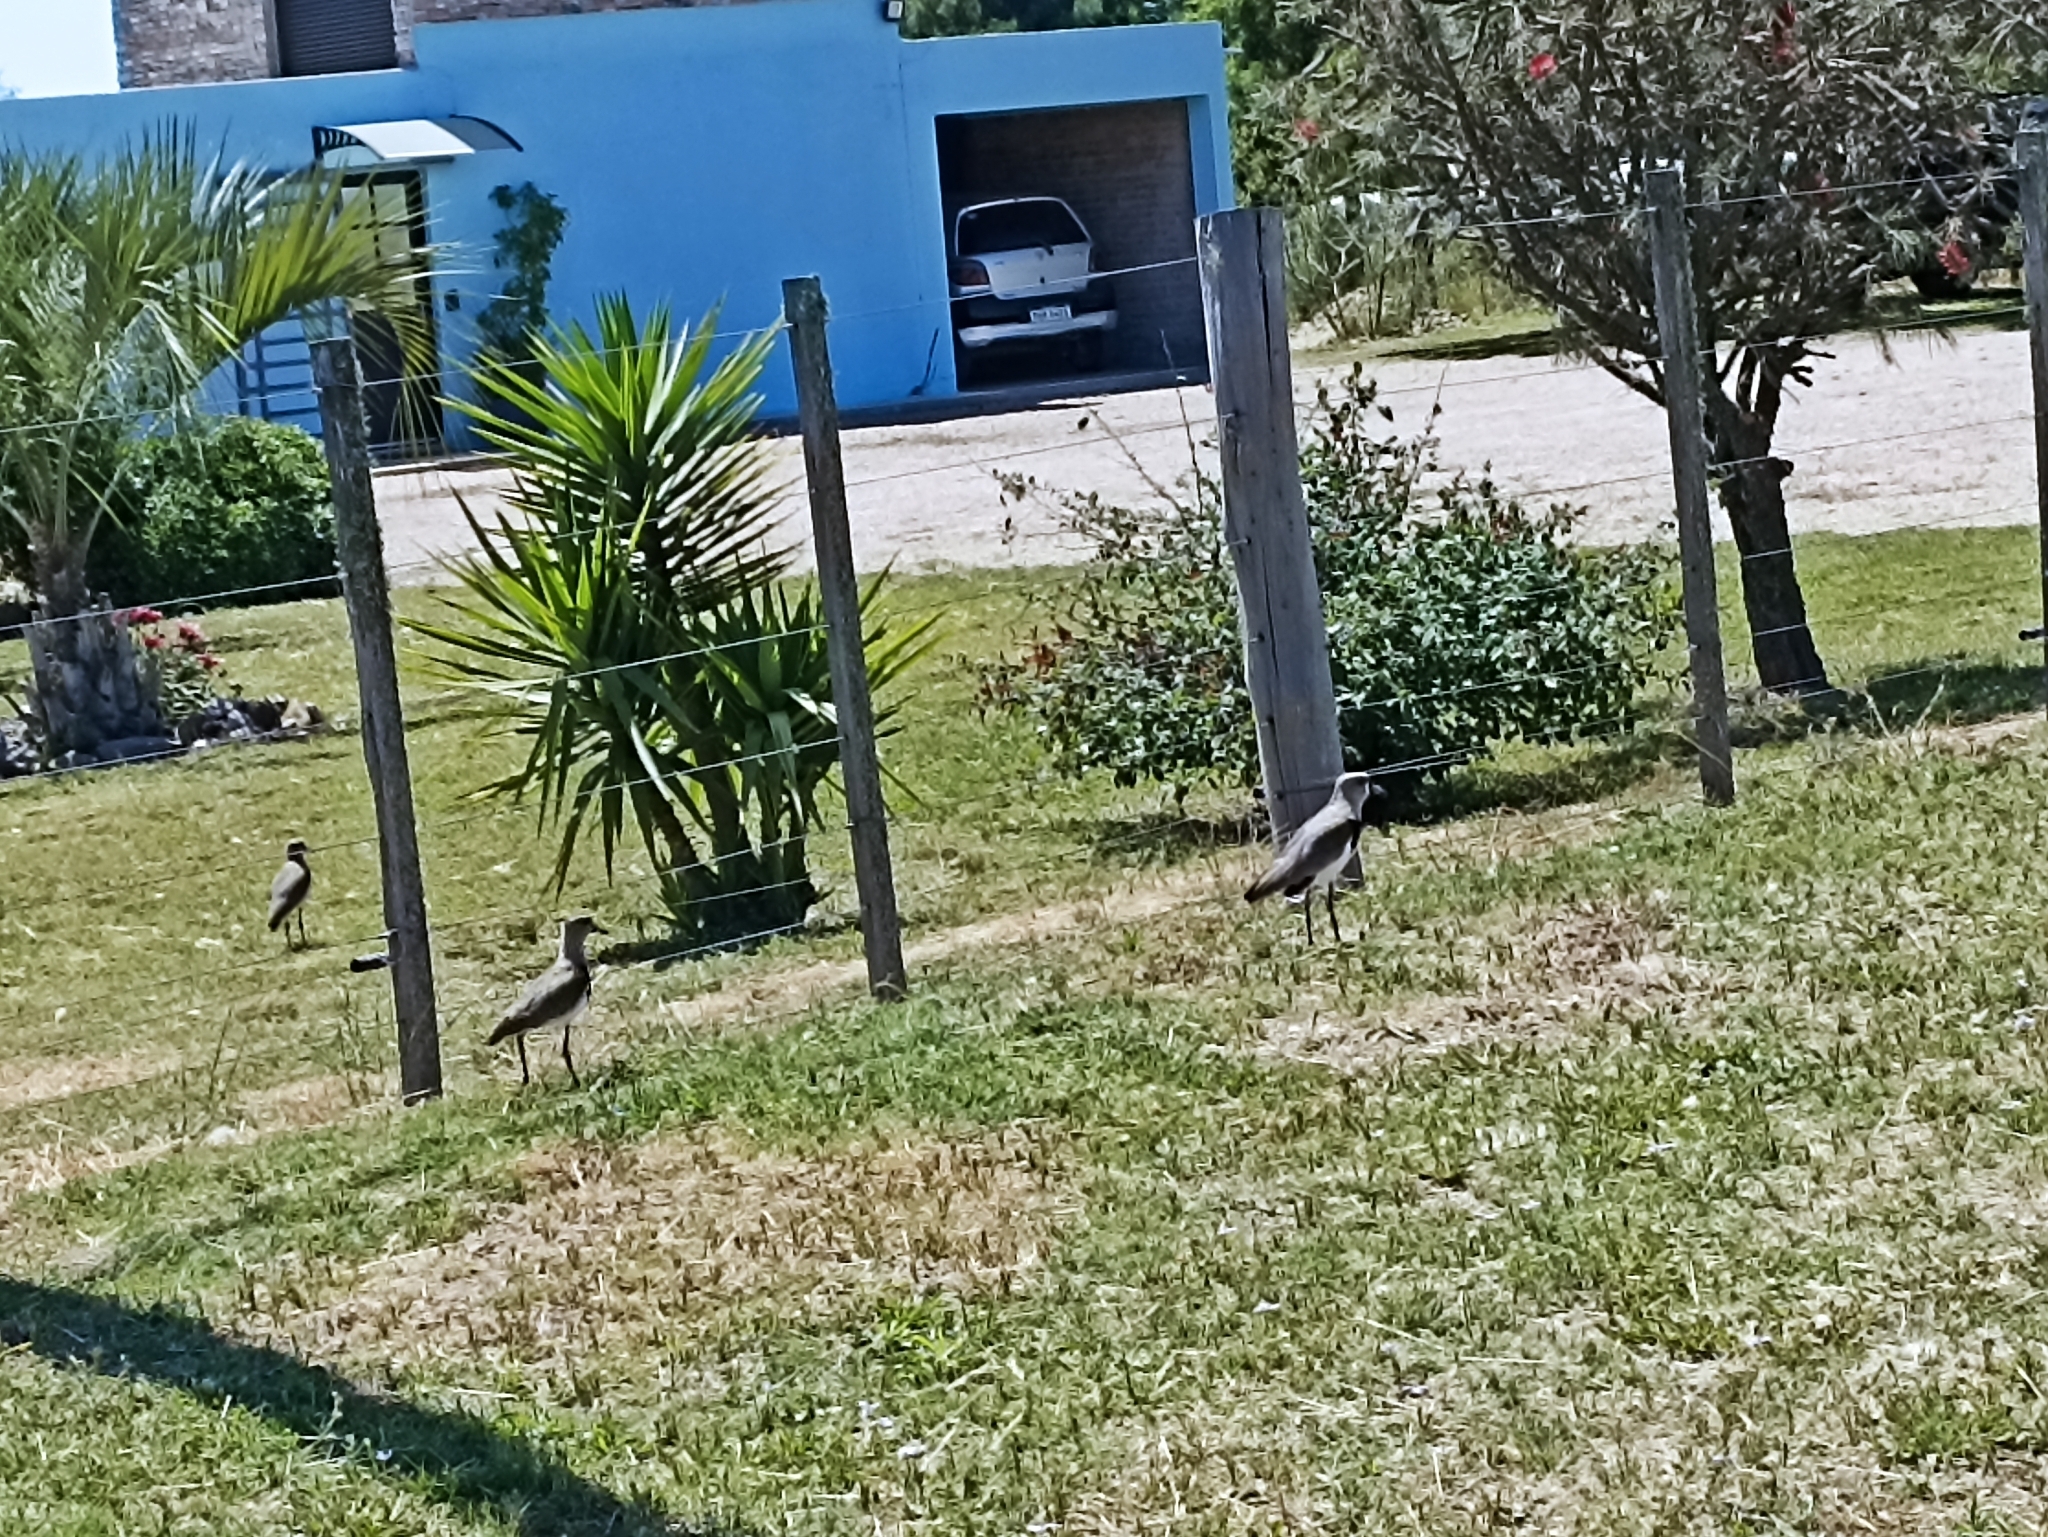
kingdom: Animalia
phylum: Chordata
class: Aves
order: Charadriiformes
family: Charadriidae
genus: Vanellus
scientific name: Vanellus chilensis
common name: Southern lapwing
